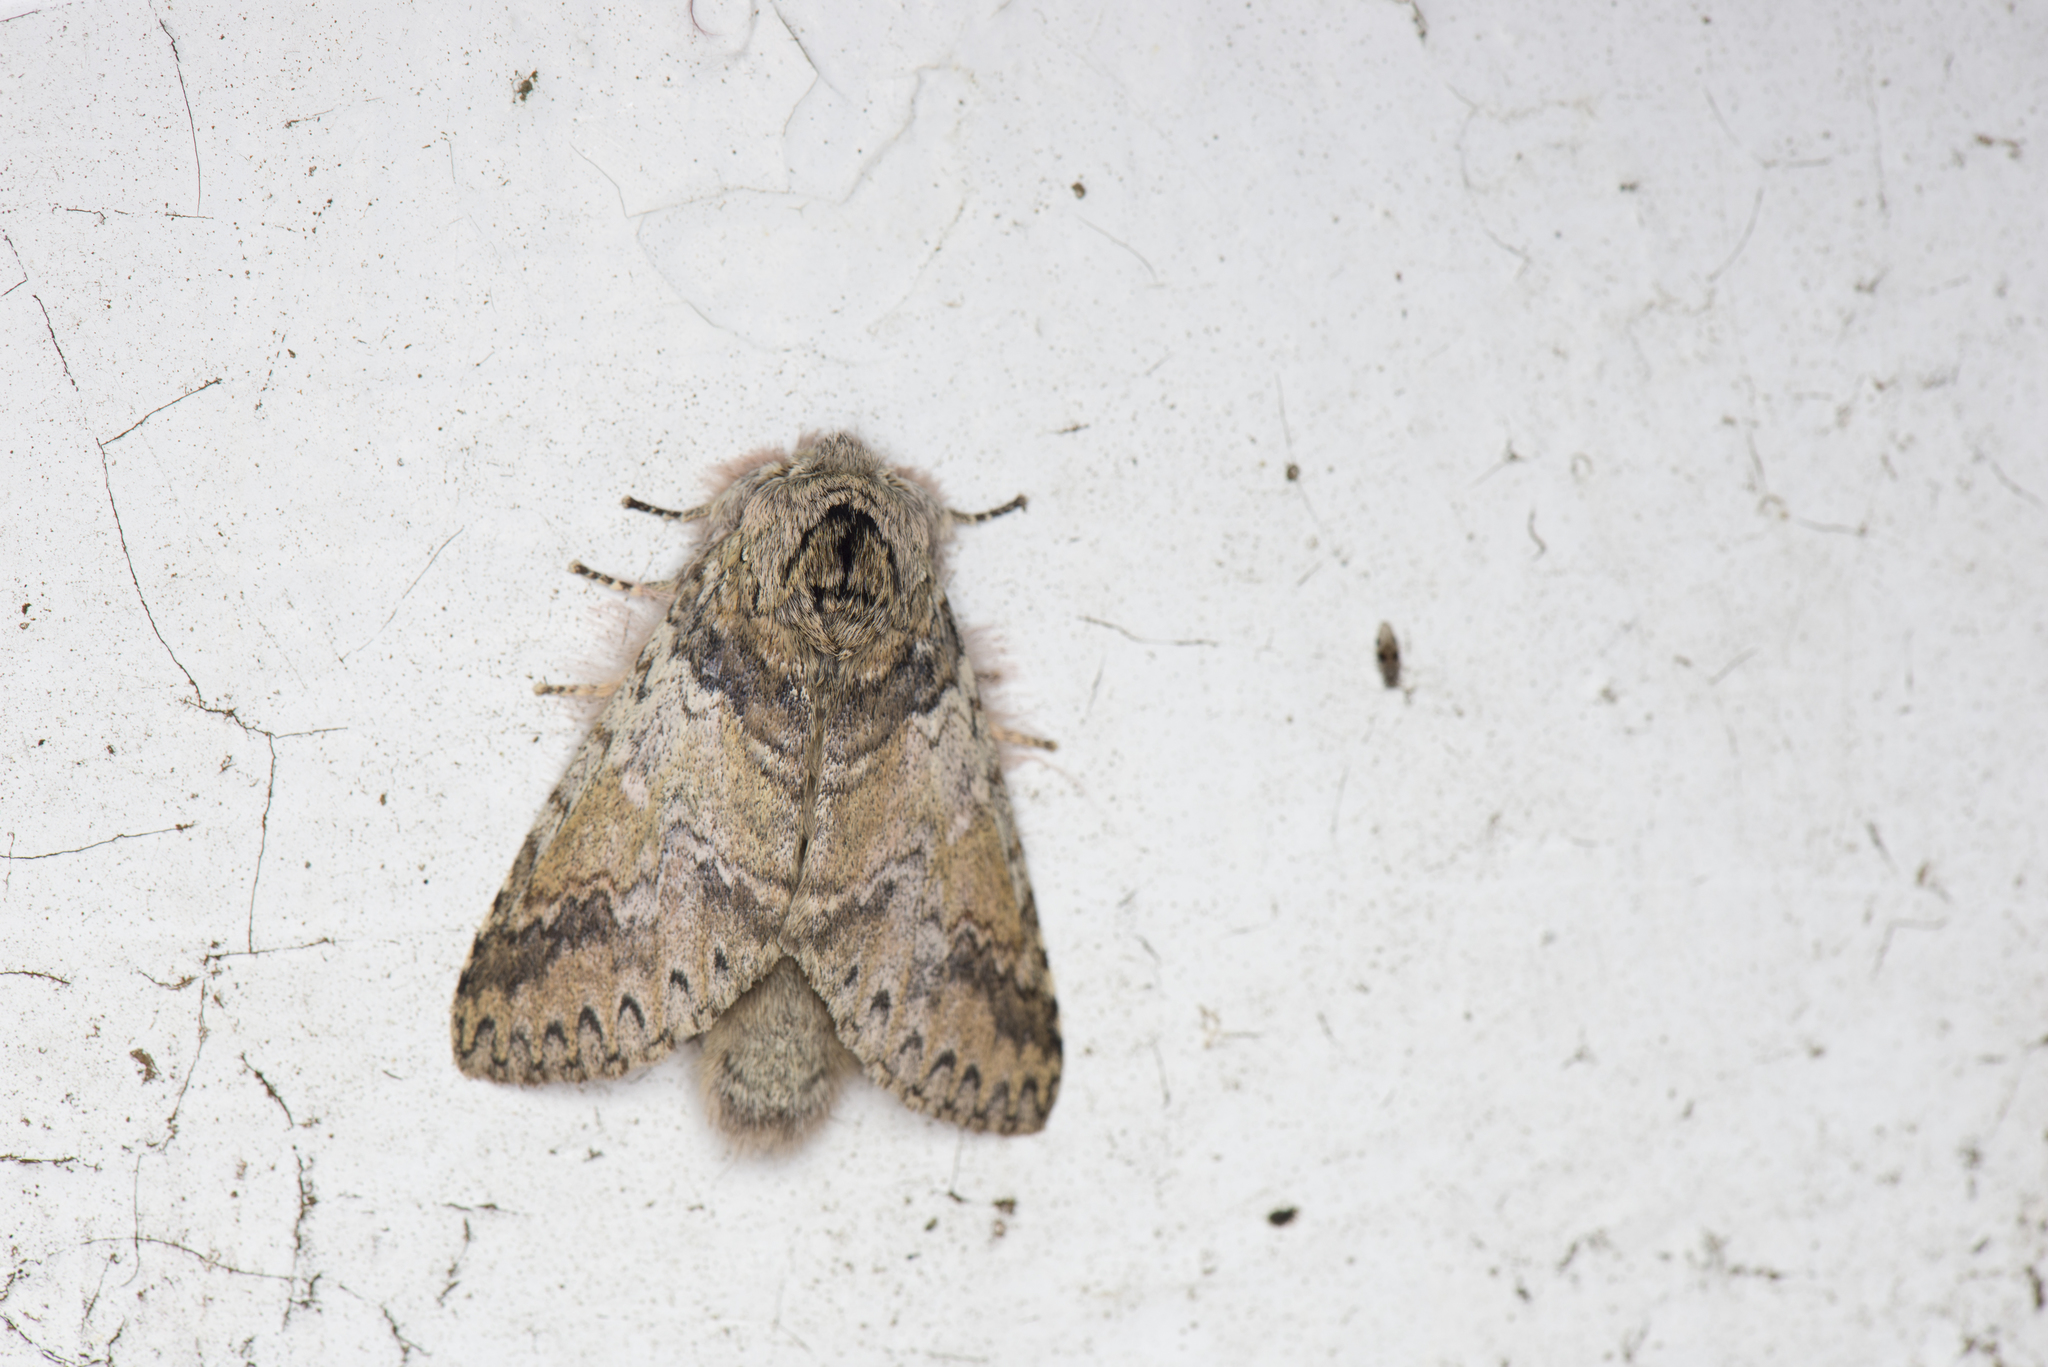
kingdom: Animalia
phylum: Arthropoda
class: Insecta
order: Lepidoptera
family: Notodontidae
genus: Disparia
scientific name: Disparia nigrofasciata
